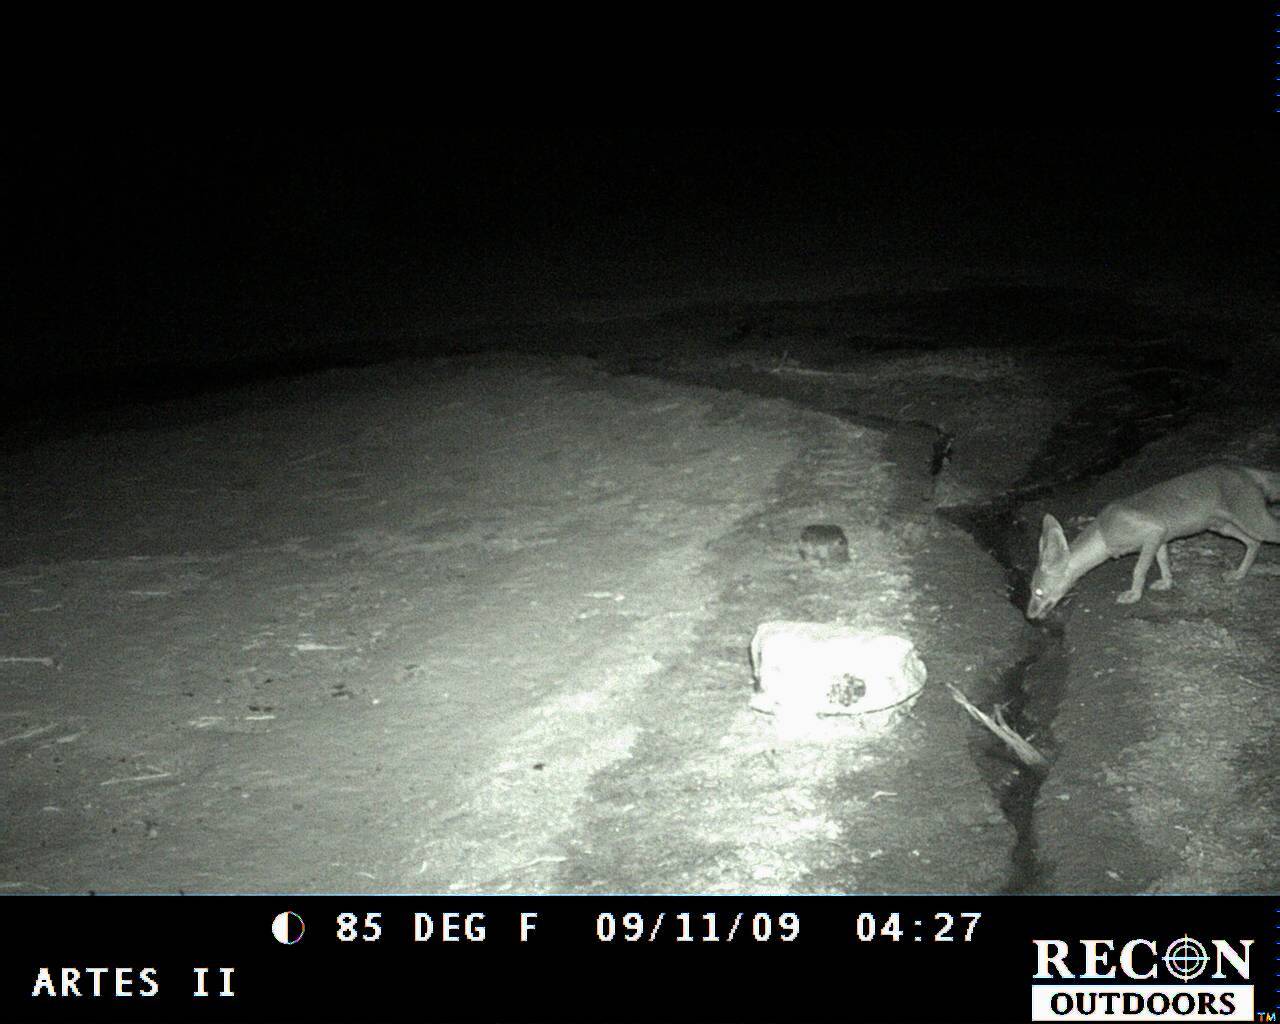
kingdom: Animalia
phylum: Chordata
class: Mammalia
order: Carnivora
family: Canidae
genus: Vulpes
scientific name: Vulpes macrotis
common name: Kit fox
